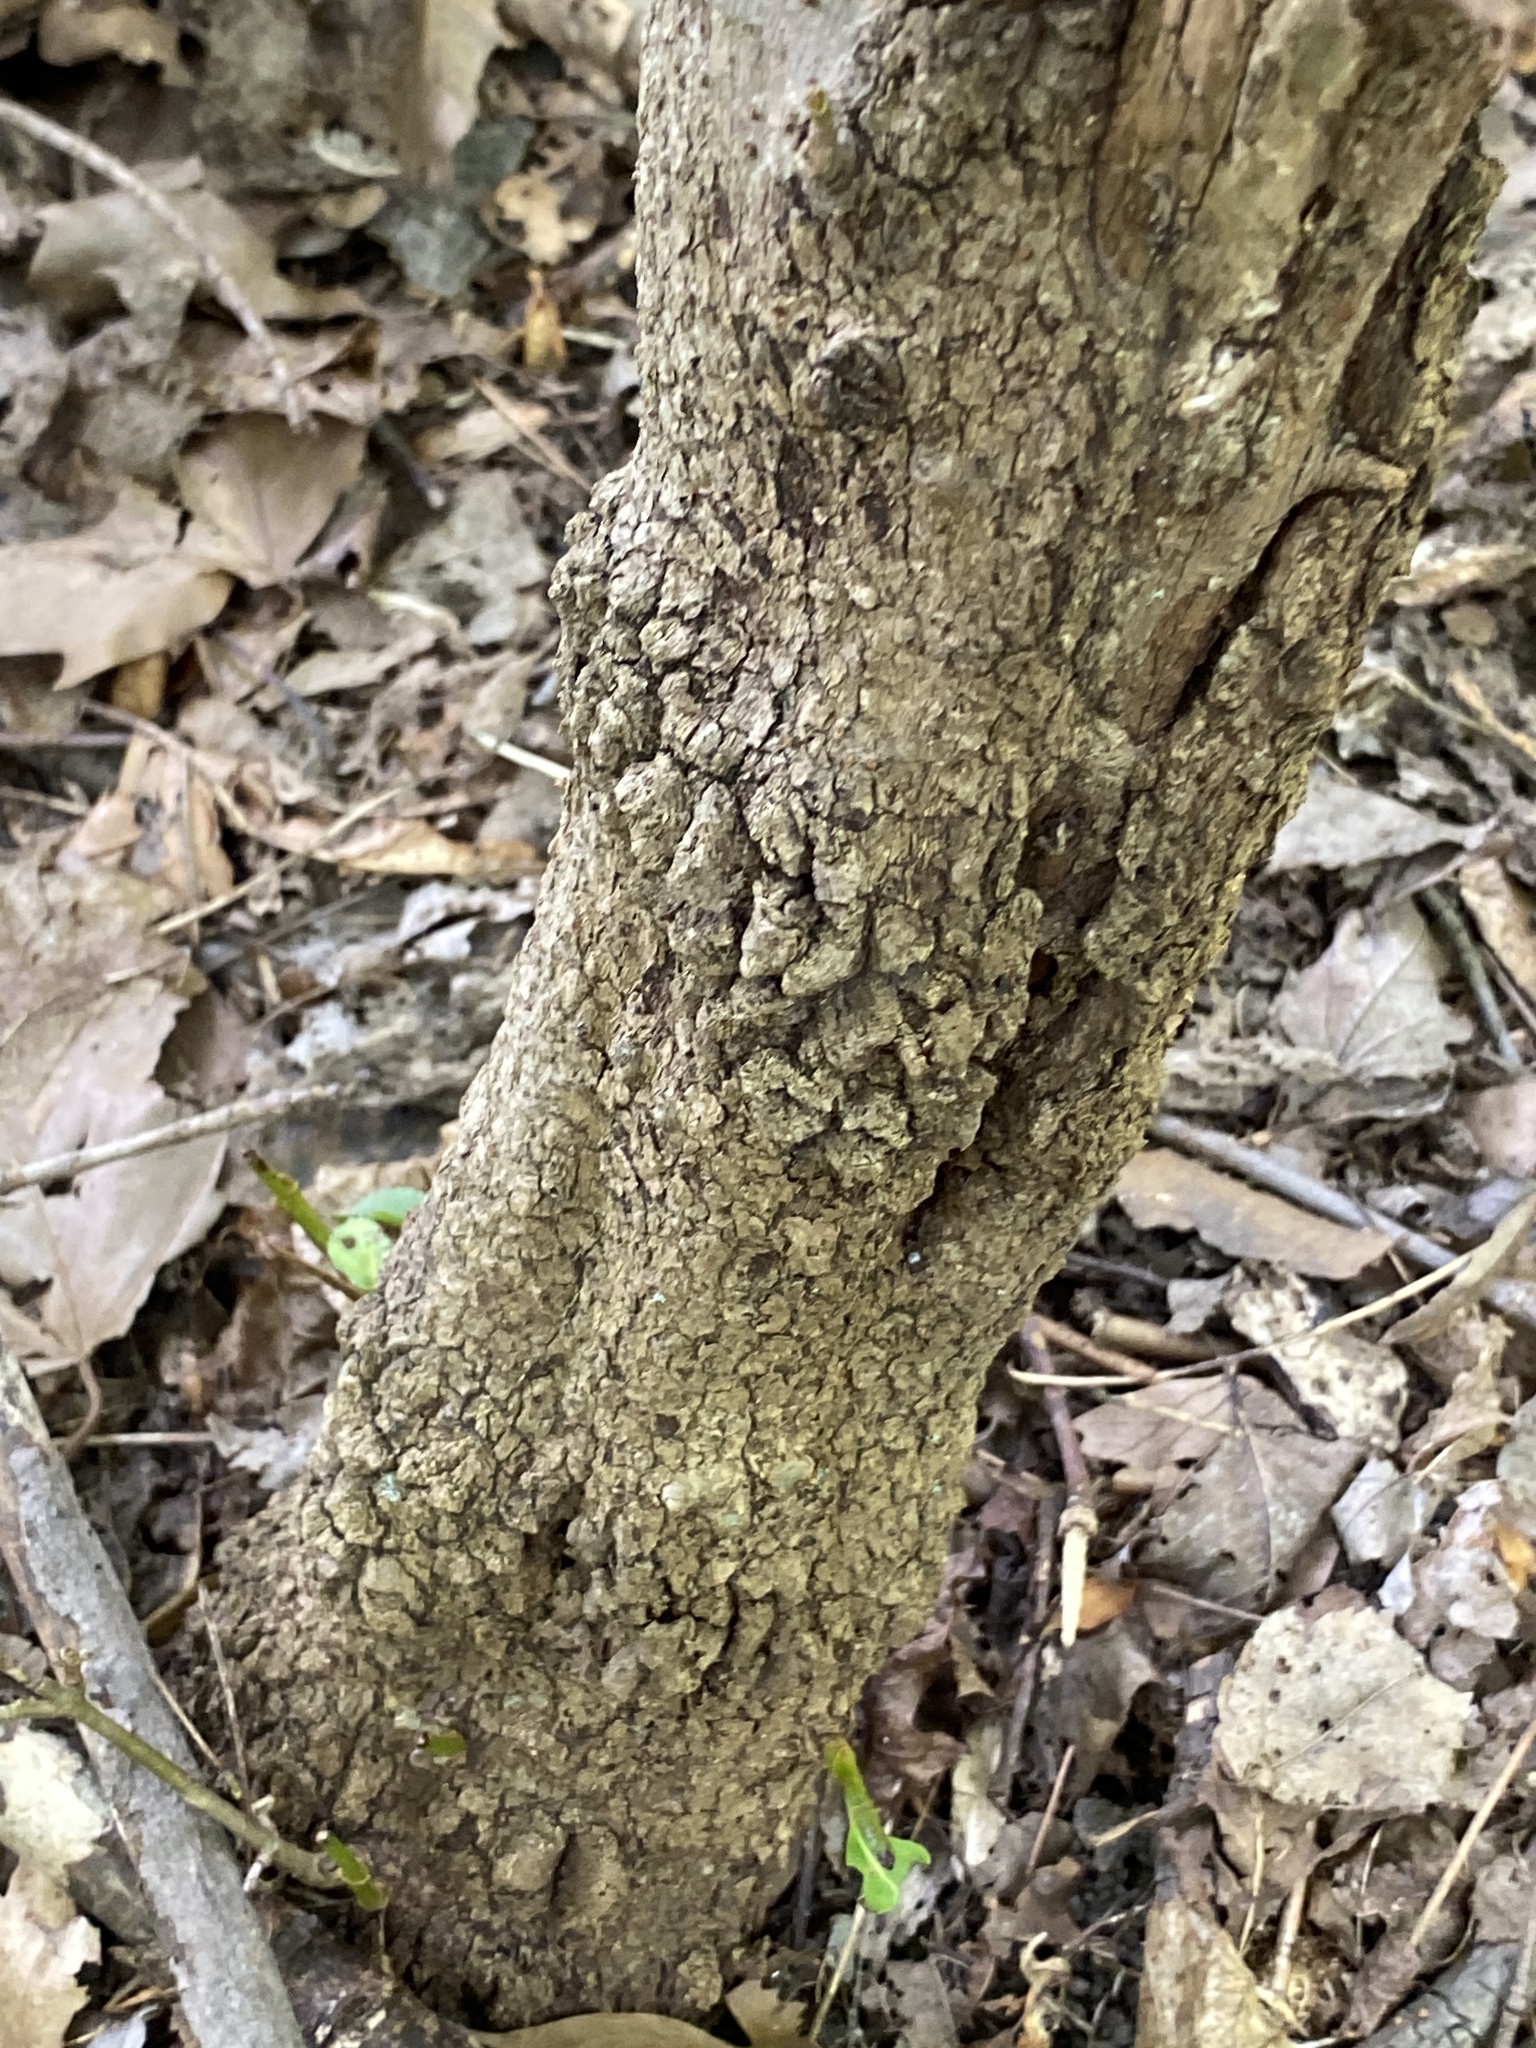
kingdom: Plantae
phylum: Tracheophyta
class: Magnoliopsida
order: Dipsacales
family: Viburnaceae
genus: Viburnum
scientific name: Viburnum prunifolium
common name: Black haw
